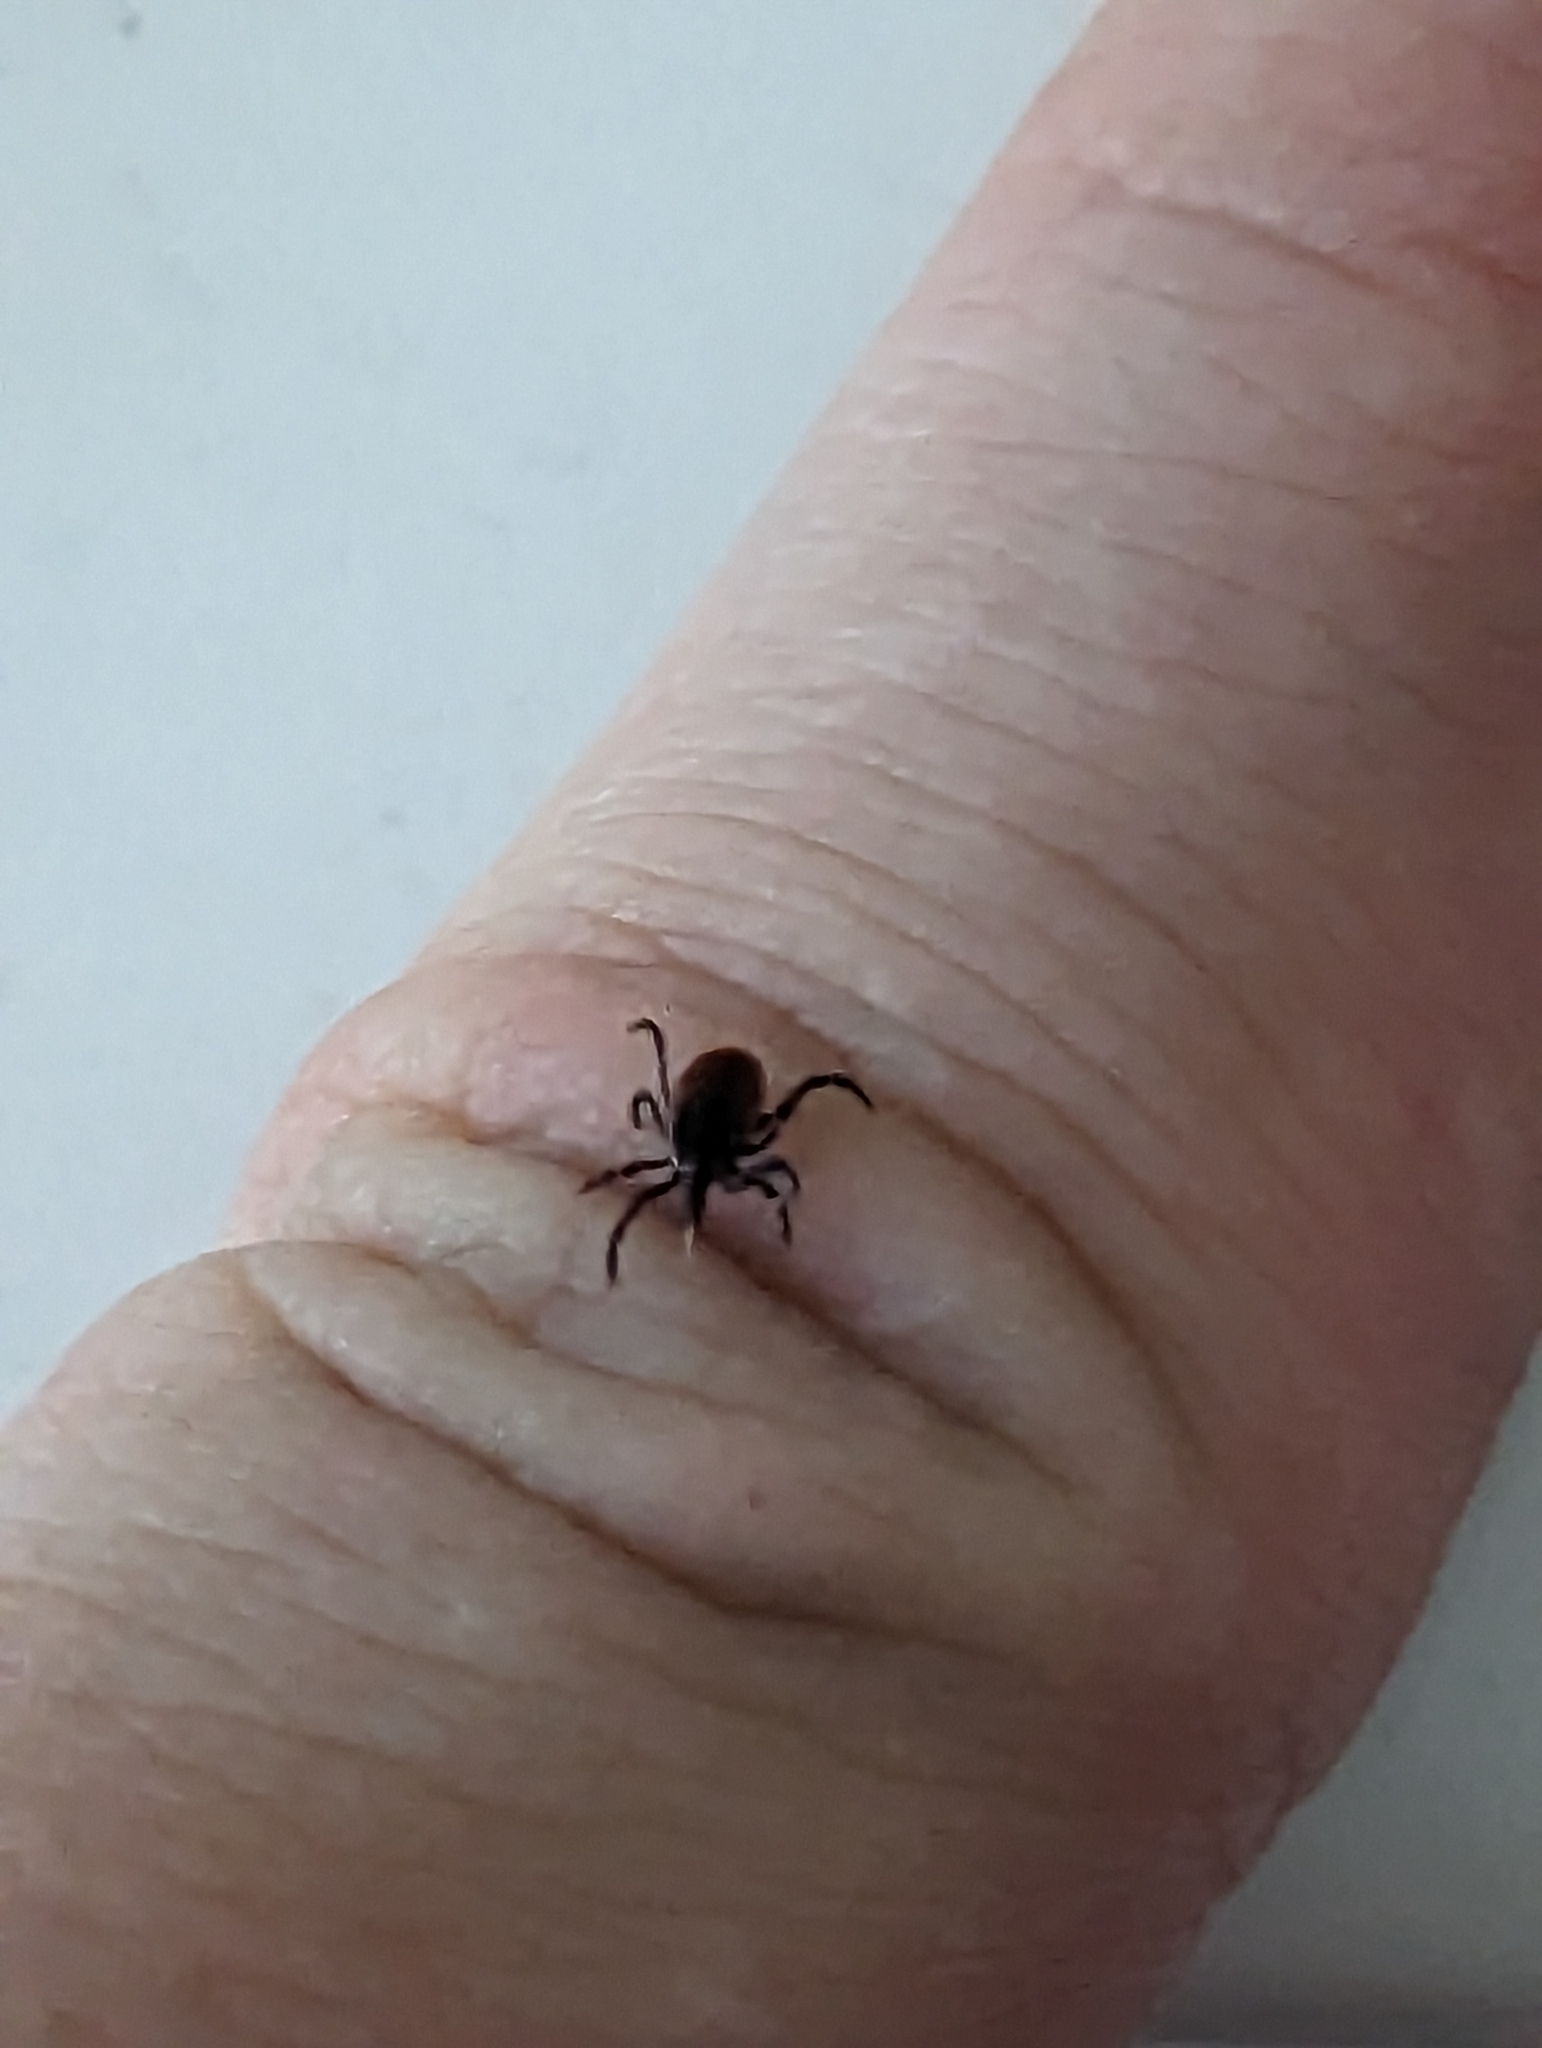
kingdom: Animalia
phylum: Arthropoda
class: Arachnida
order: Ixodida
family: Ixodidae
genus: Ixodes
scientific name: Ixodes scapularis
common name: Black legged tick
